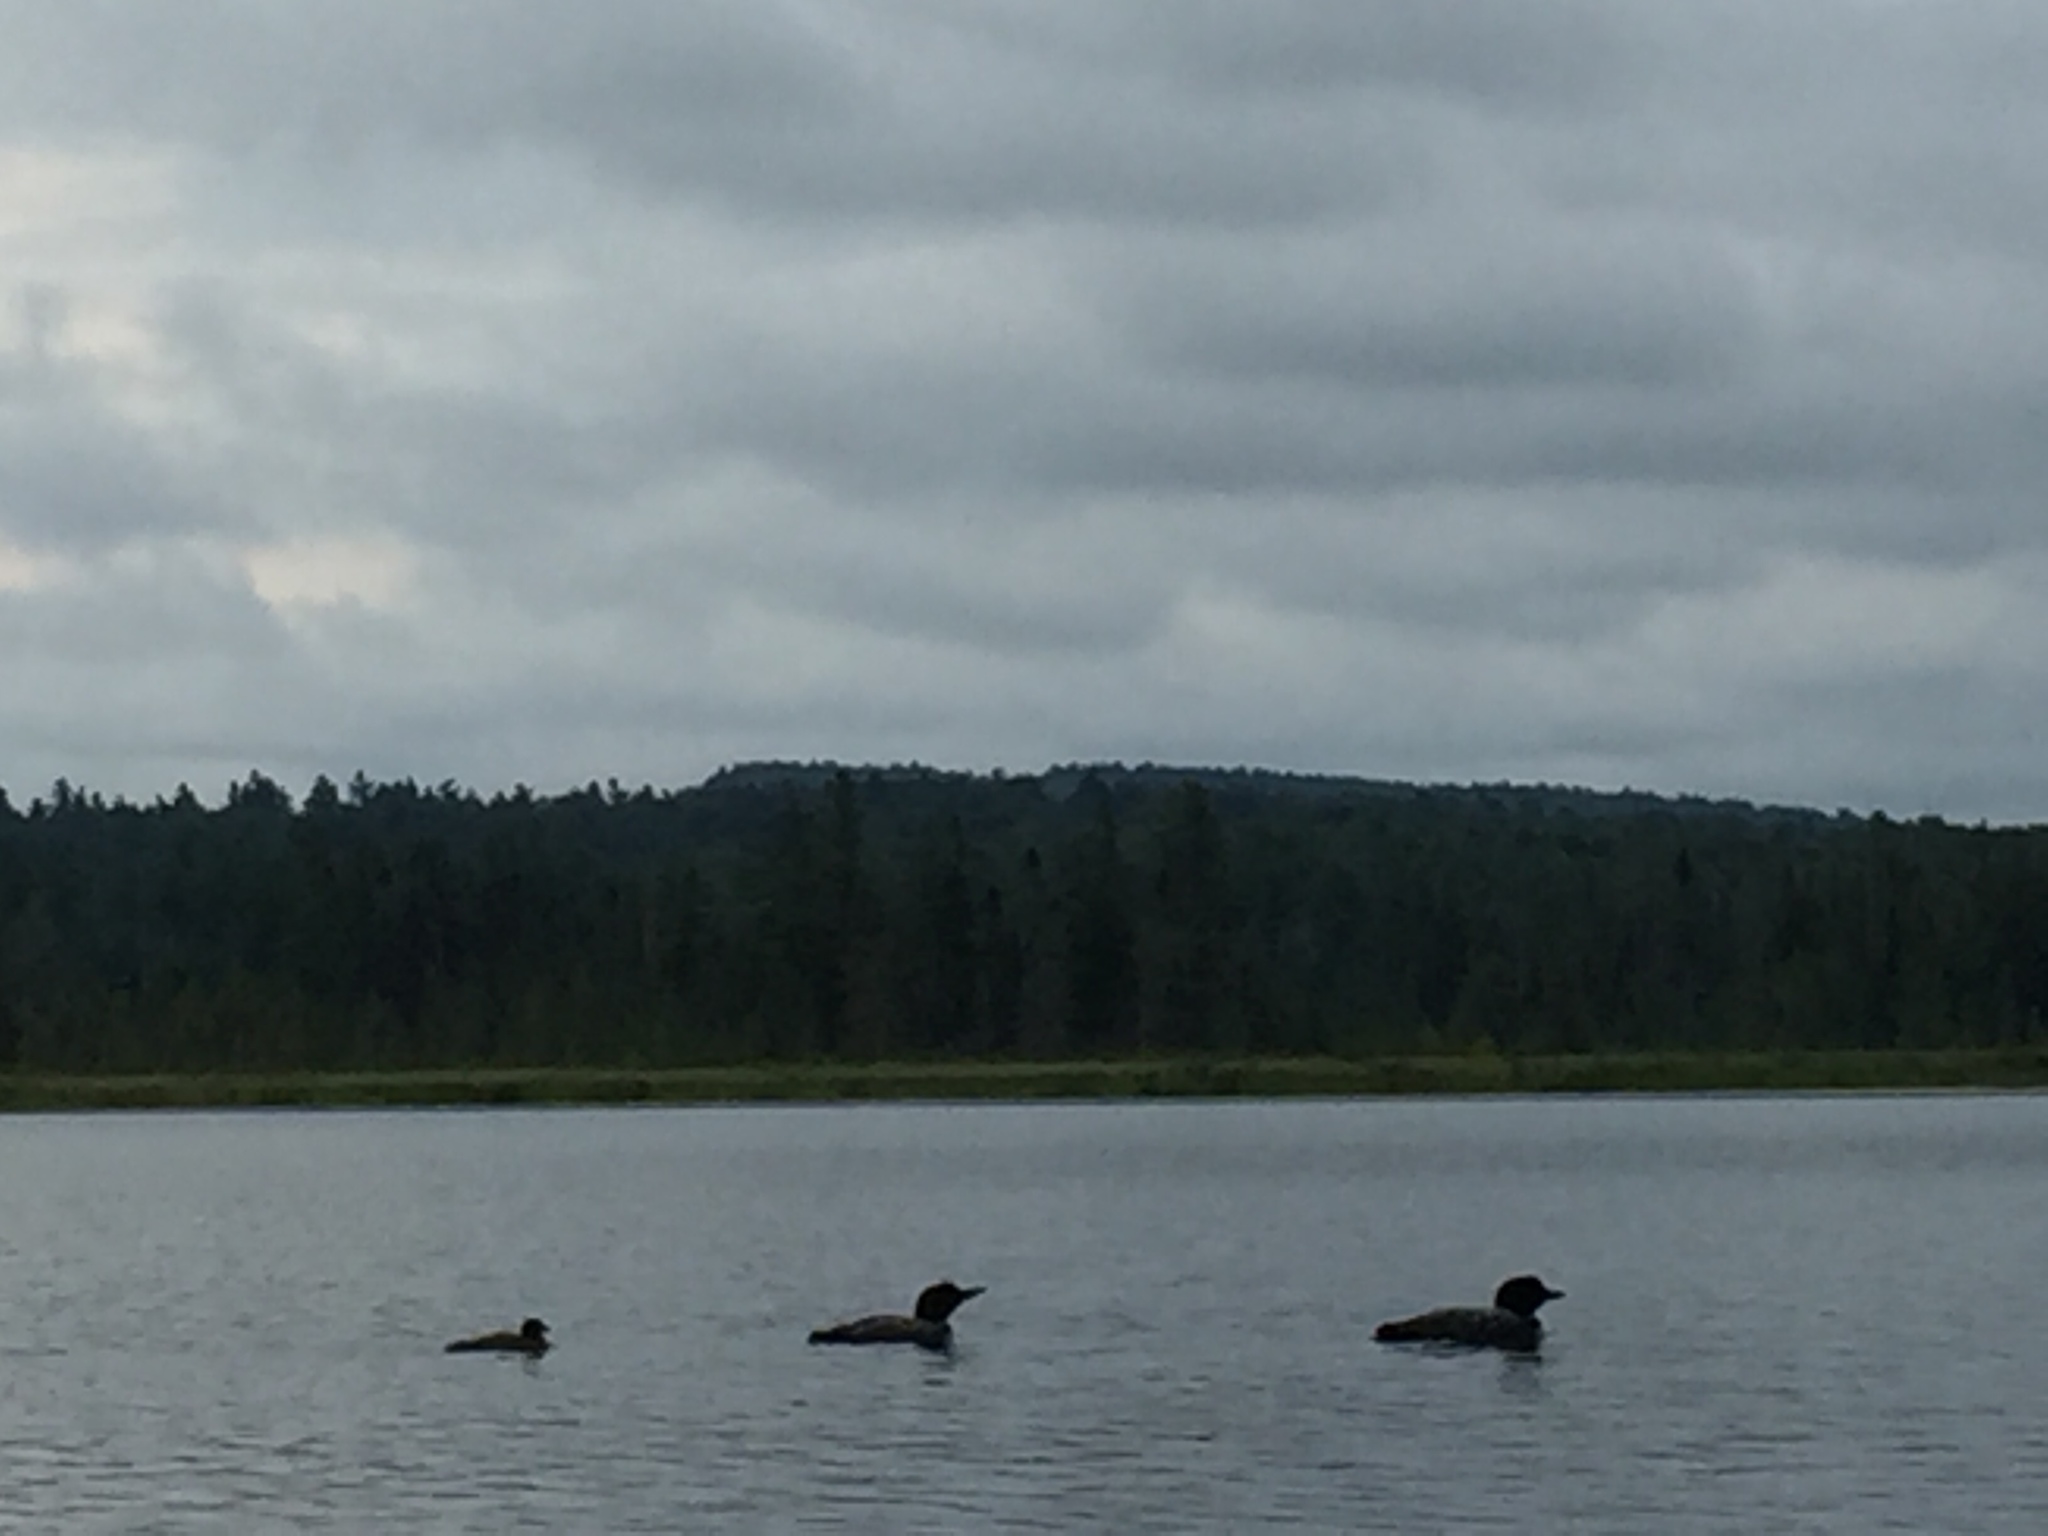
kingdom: Animalia
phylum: Chordata
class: Aves
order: Gaviiformes
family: Gaviidae
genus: Gavia
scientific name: Gavia immer
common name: Common loon
